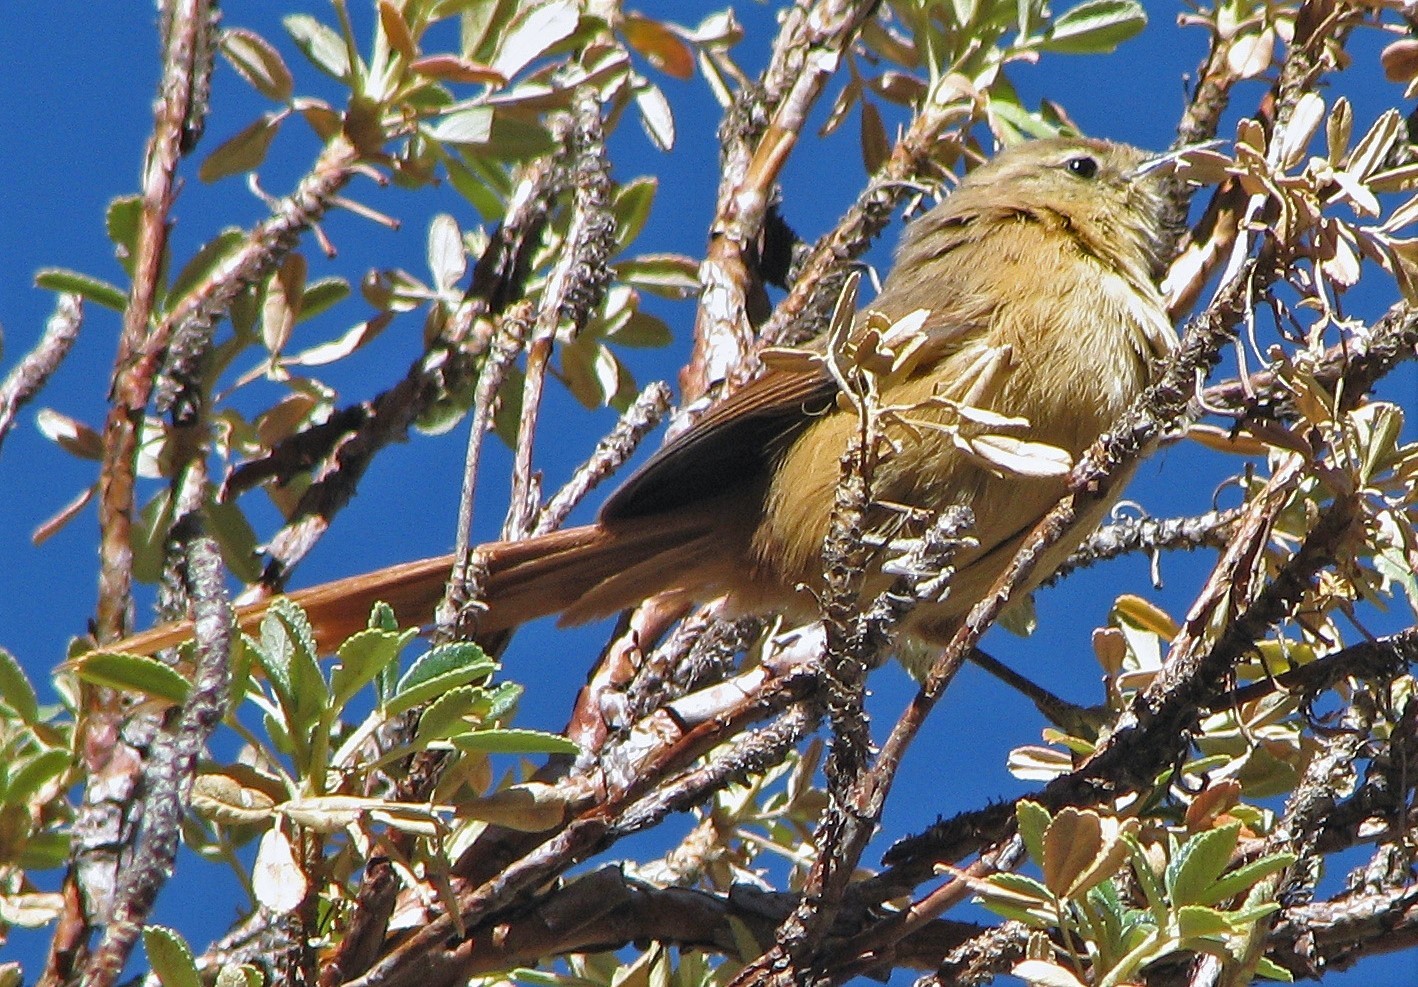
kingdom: Animalia
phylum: Chordata
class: Aves
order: Passeriformes
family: Furnariidae
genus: Leptasthenura
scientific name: Leptasthenura yanacensis
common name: Tawny tit-spinetail
